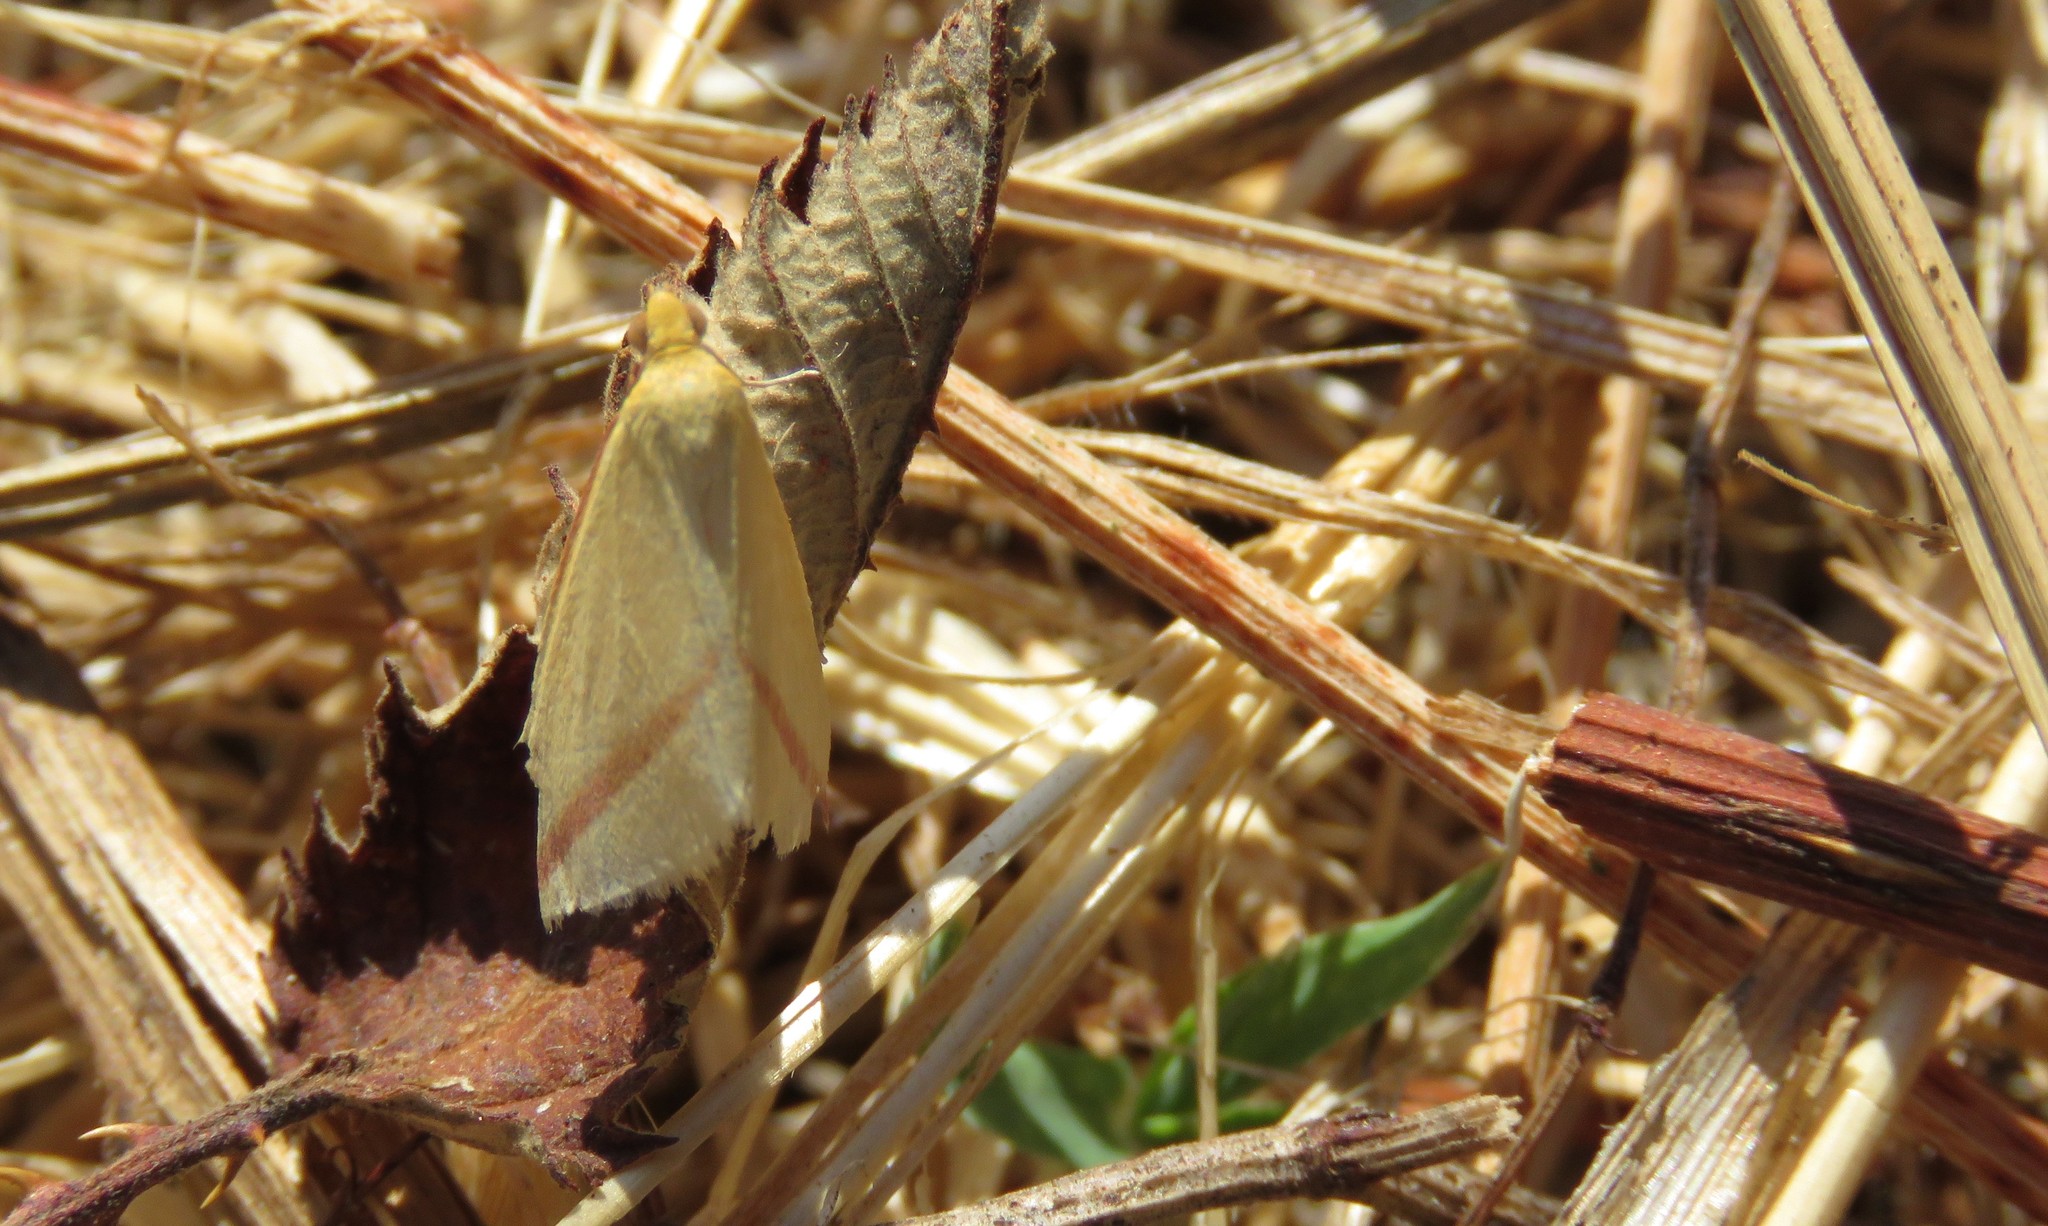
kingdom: Animalia
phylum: Arthropoda
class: Insecta
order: Lepidoptera
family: Geometridae
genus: Rhodometra
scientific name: Rhodometra sacraria
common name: Vestal
